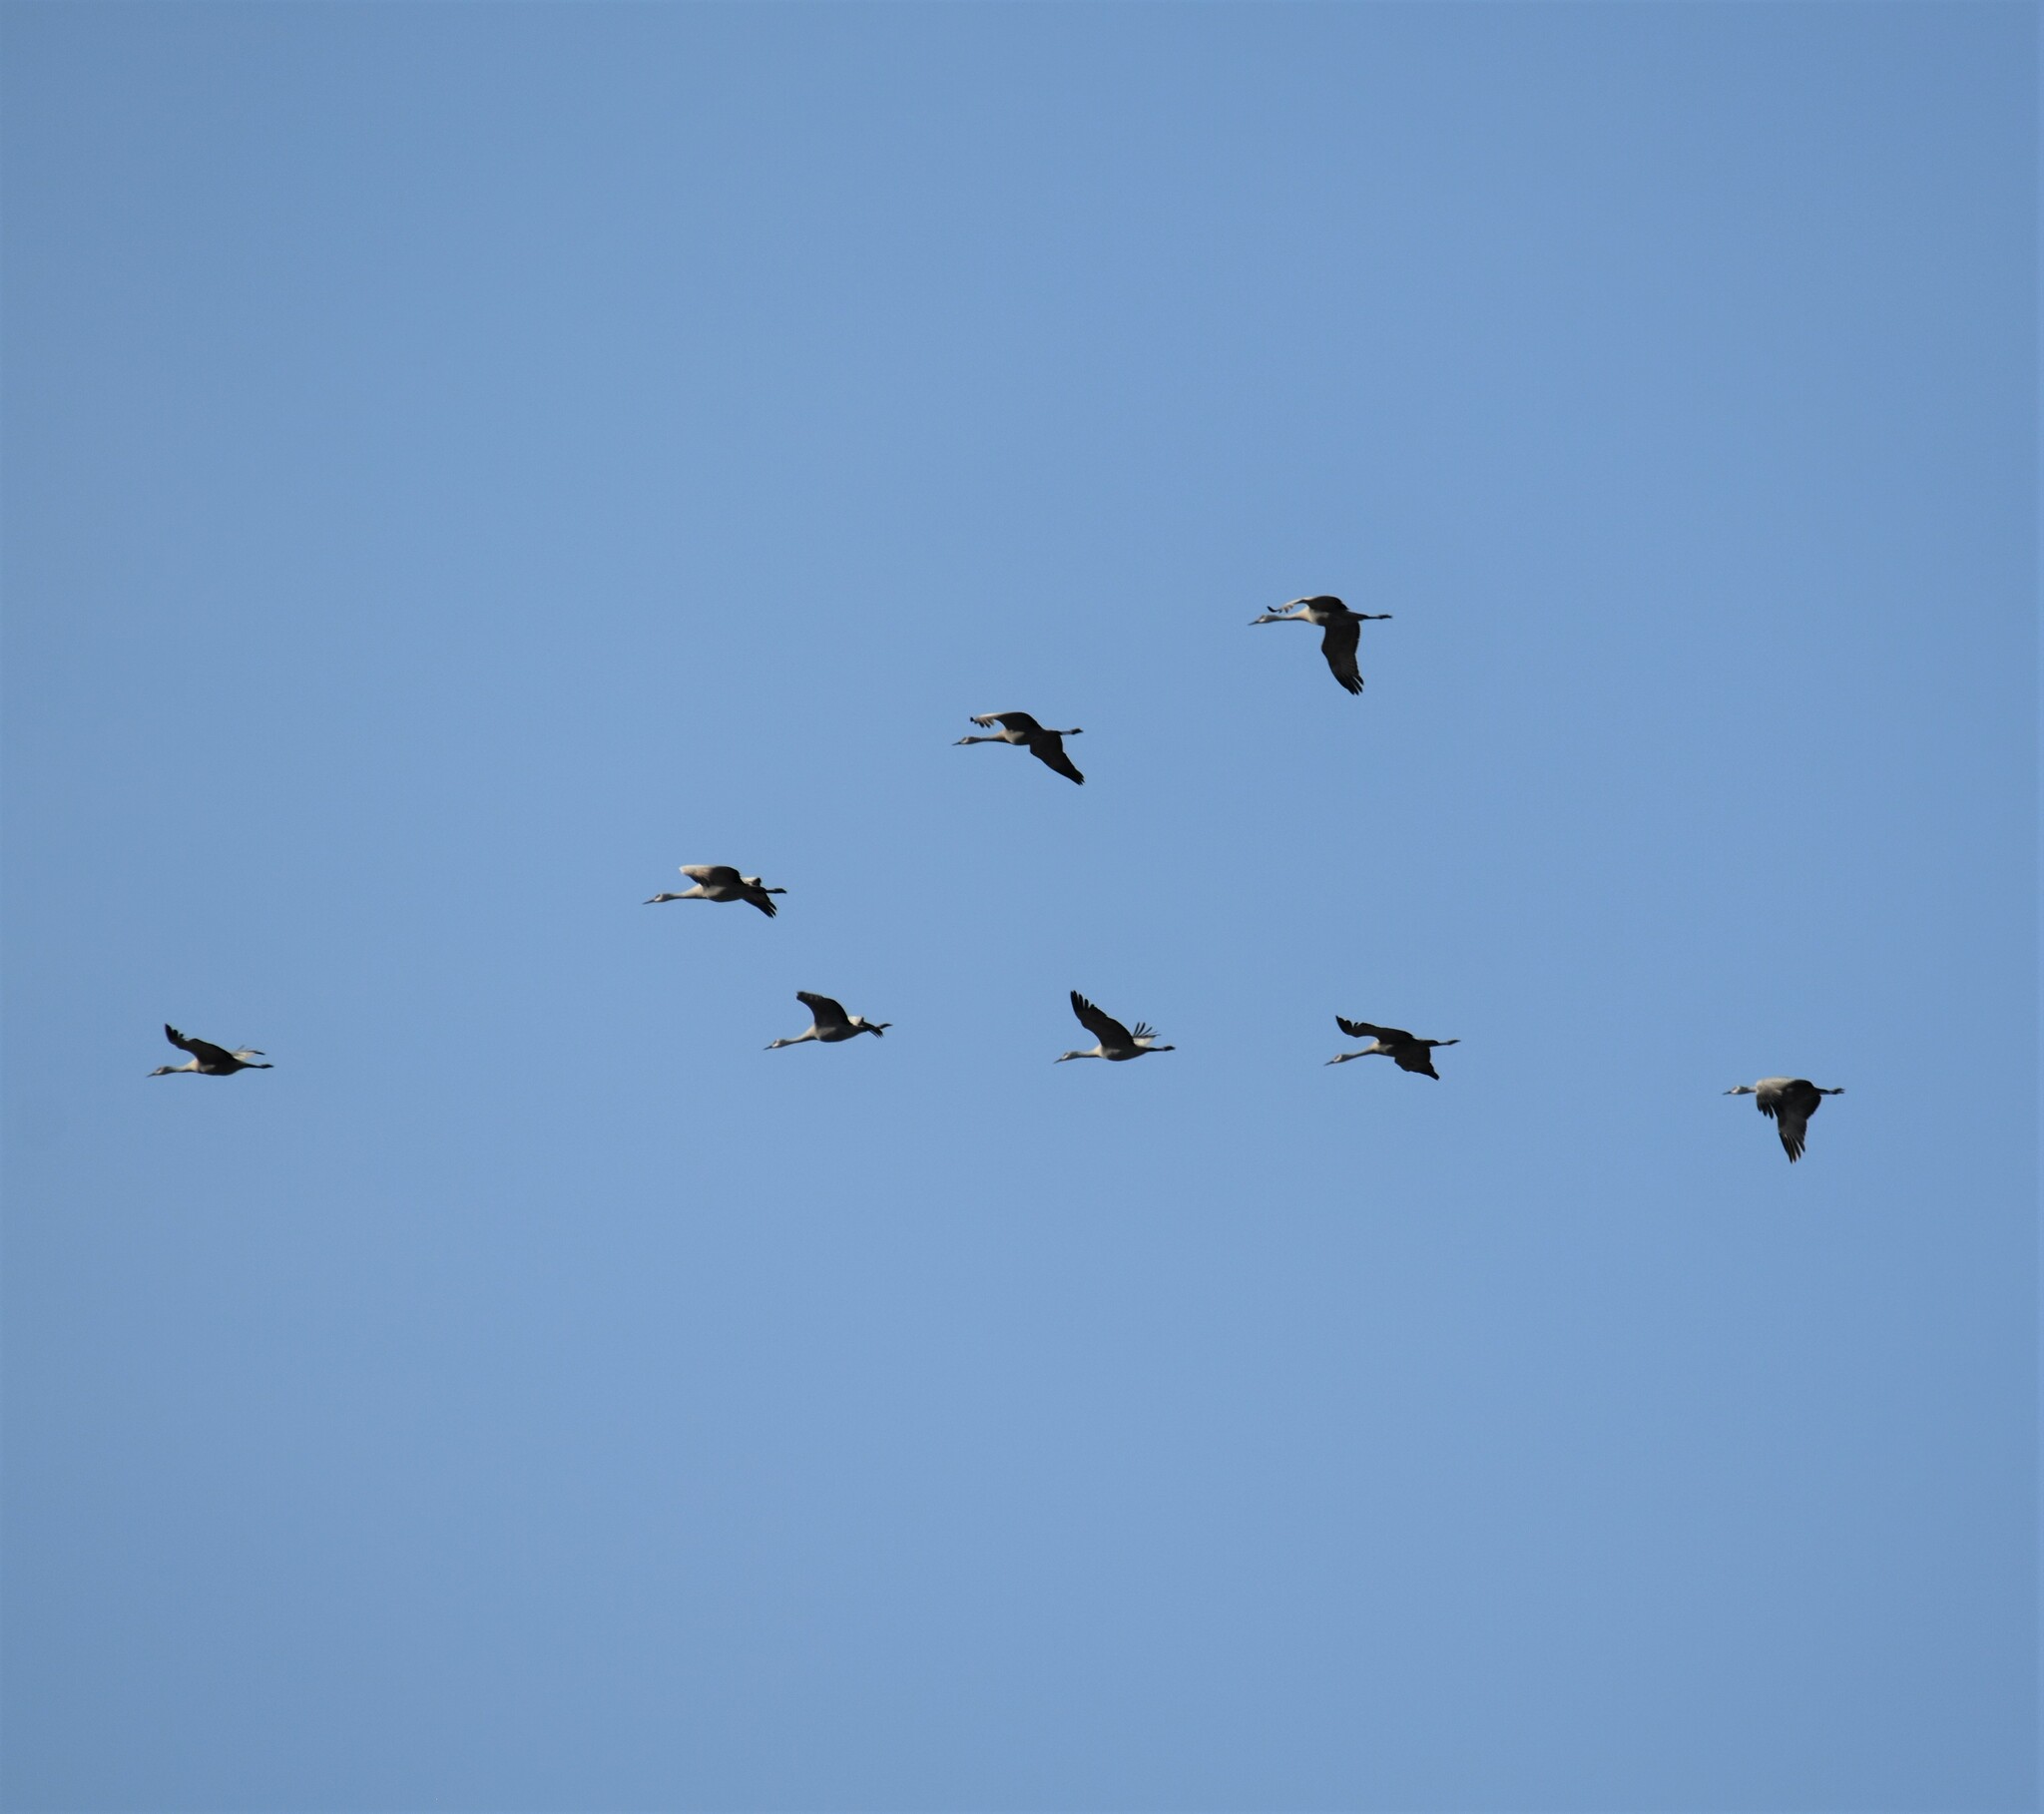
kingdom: Animalia
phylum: Chordata
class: Aves
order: Gruiformes
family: Gruidae
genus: Grus
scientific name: Grus canadensis
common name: Sandhill crane
